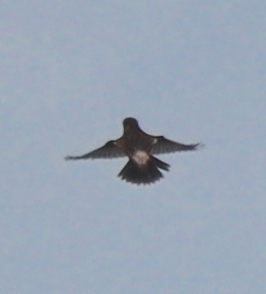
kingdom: Animalia
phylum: Chordata
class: Aves
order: Passeriformes
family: Muscicapidae
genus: Saxicola
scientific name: Saxicola rubicola
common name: European stonechat
